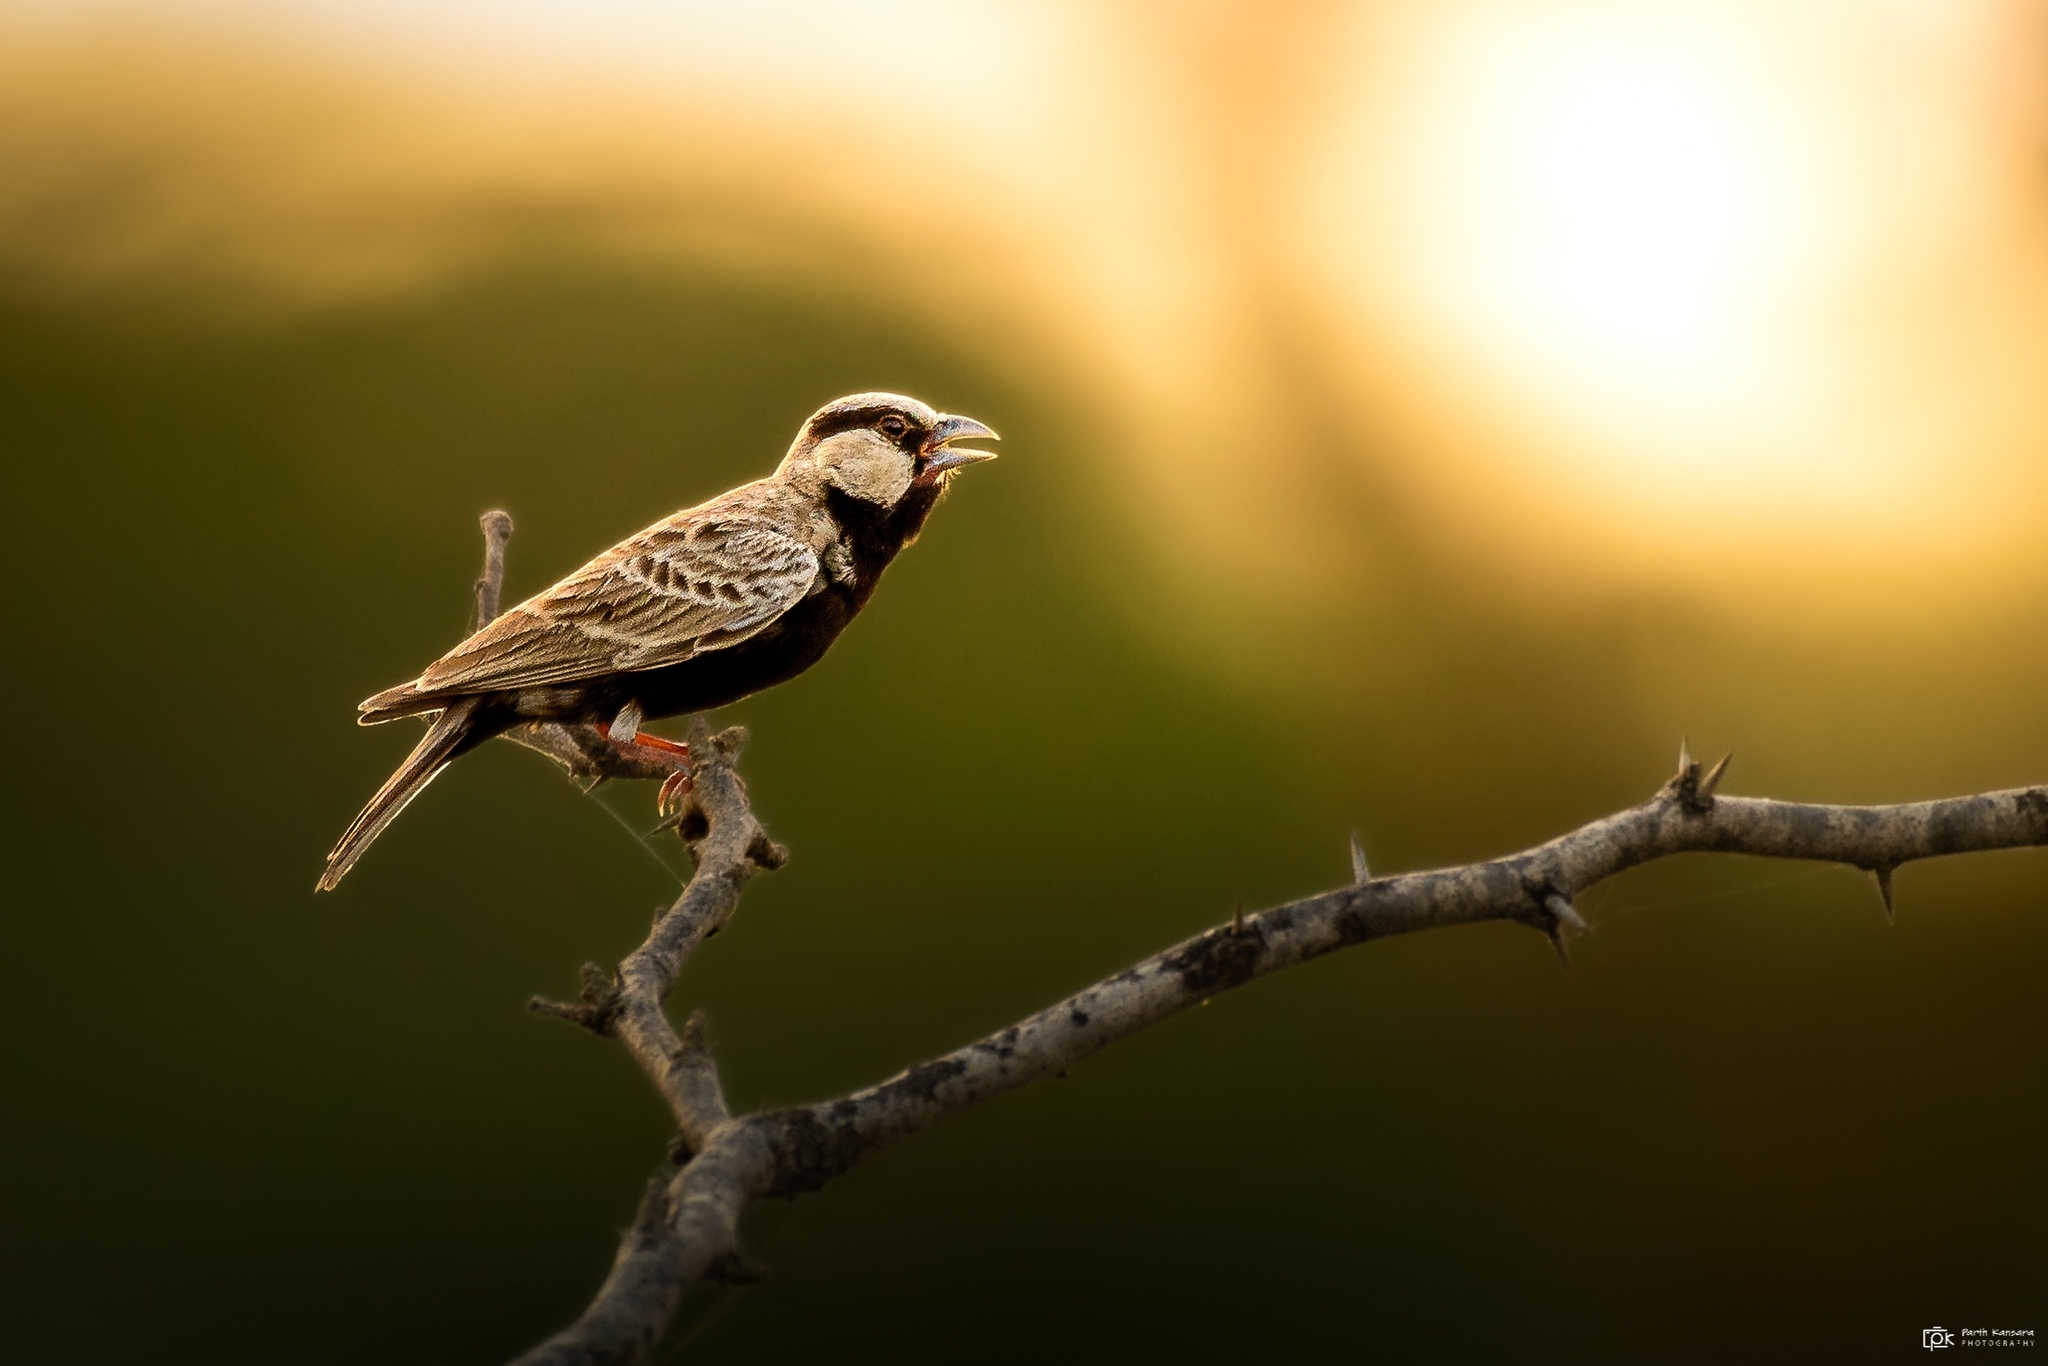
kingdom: Animalia
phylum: Chordata
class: Aves
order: Passeriformes
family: Alaudidae
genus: Eremopterix
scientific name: Eremopterix griseus
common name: Ashy-crowned sparrow-lark
